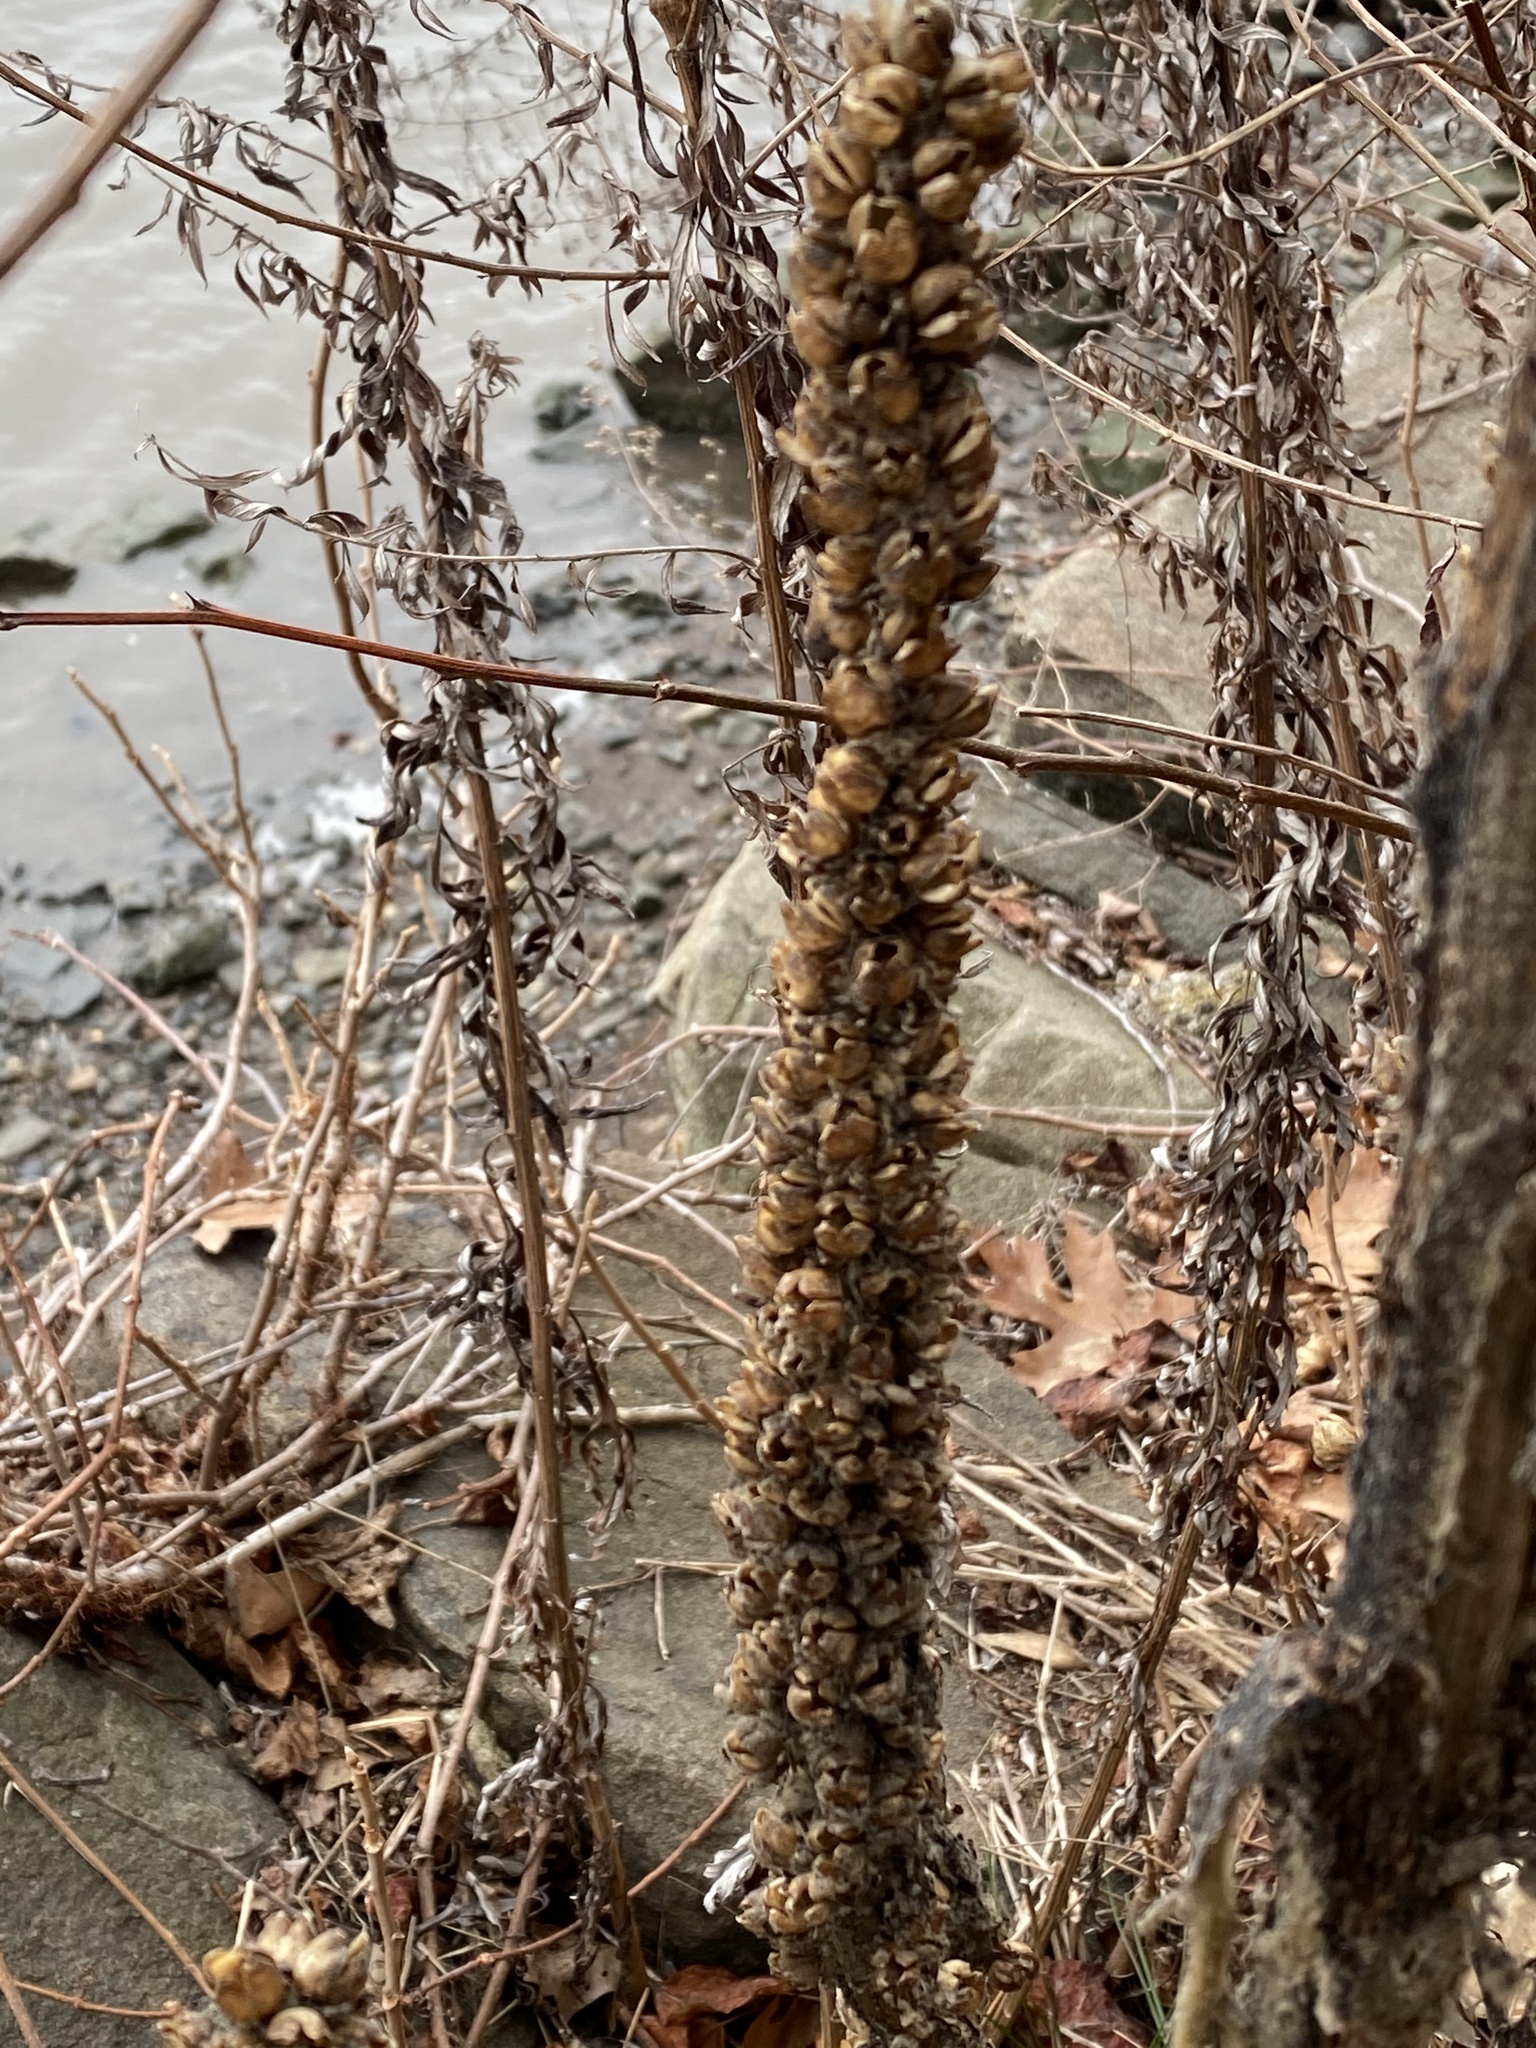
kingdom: Plantae
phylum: Tracheophyta
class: Magnoliopsida
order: Lamiales
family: Scrophulariaceae
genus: Verbascum
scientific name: Verbascum thapsus
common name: Common mullein
